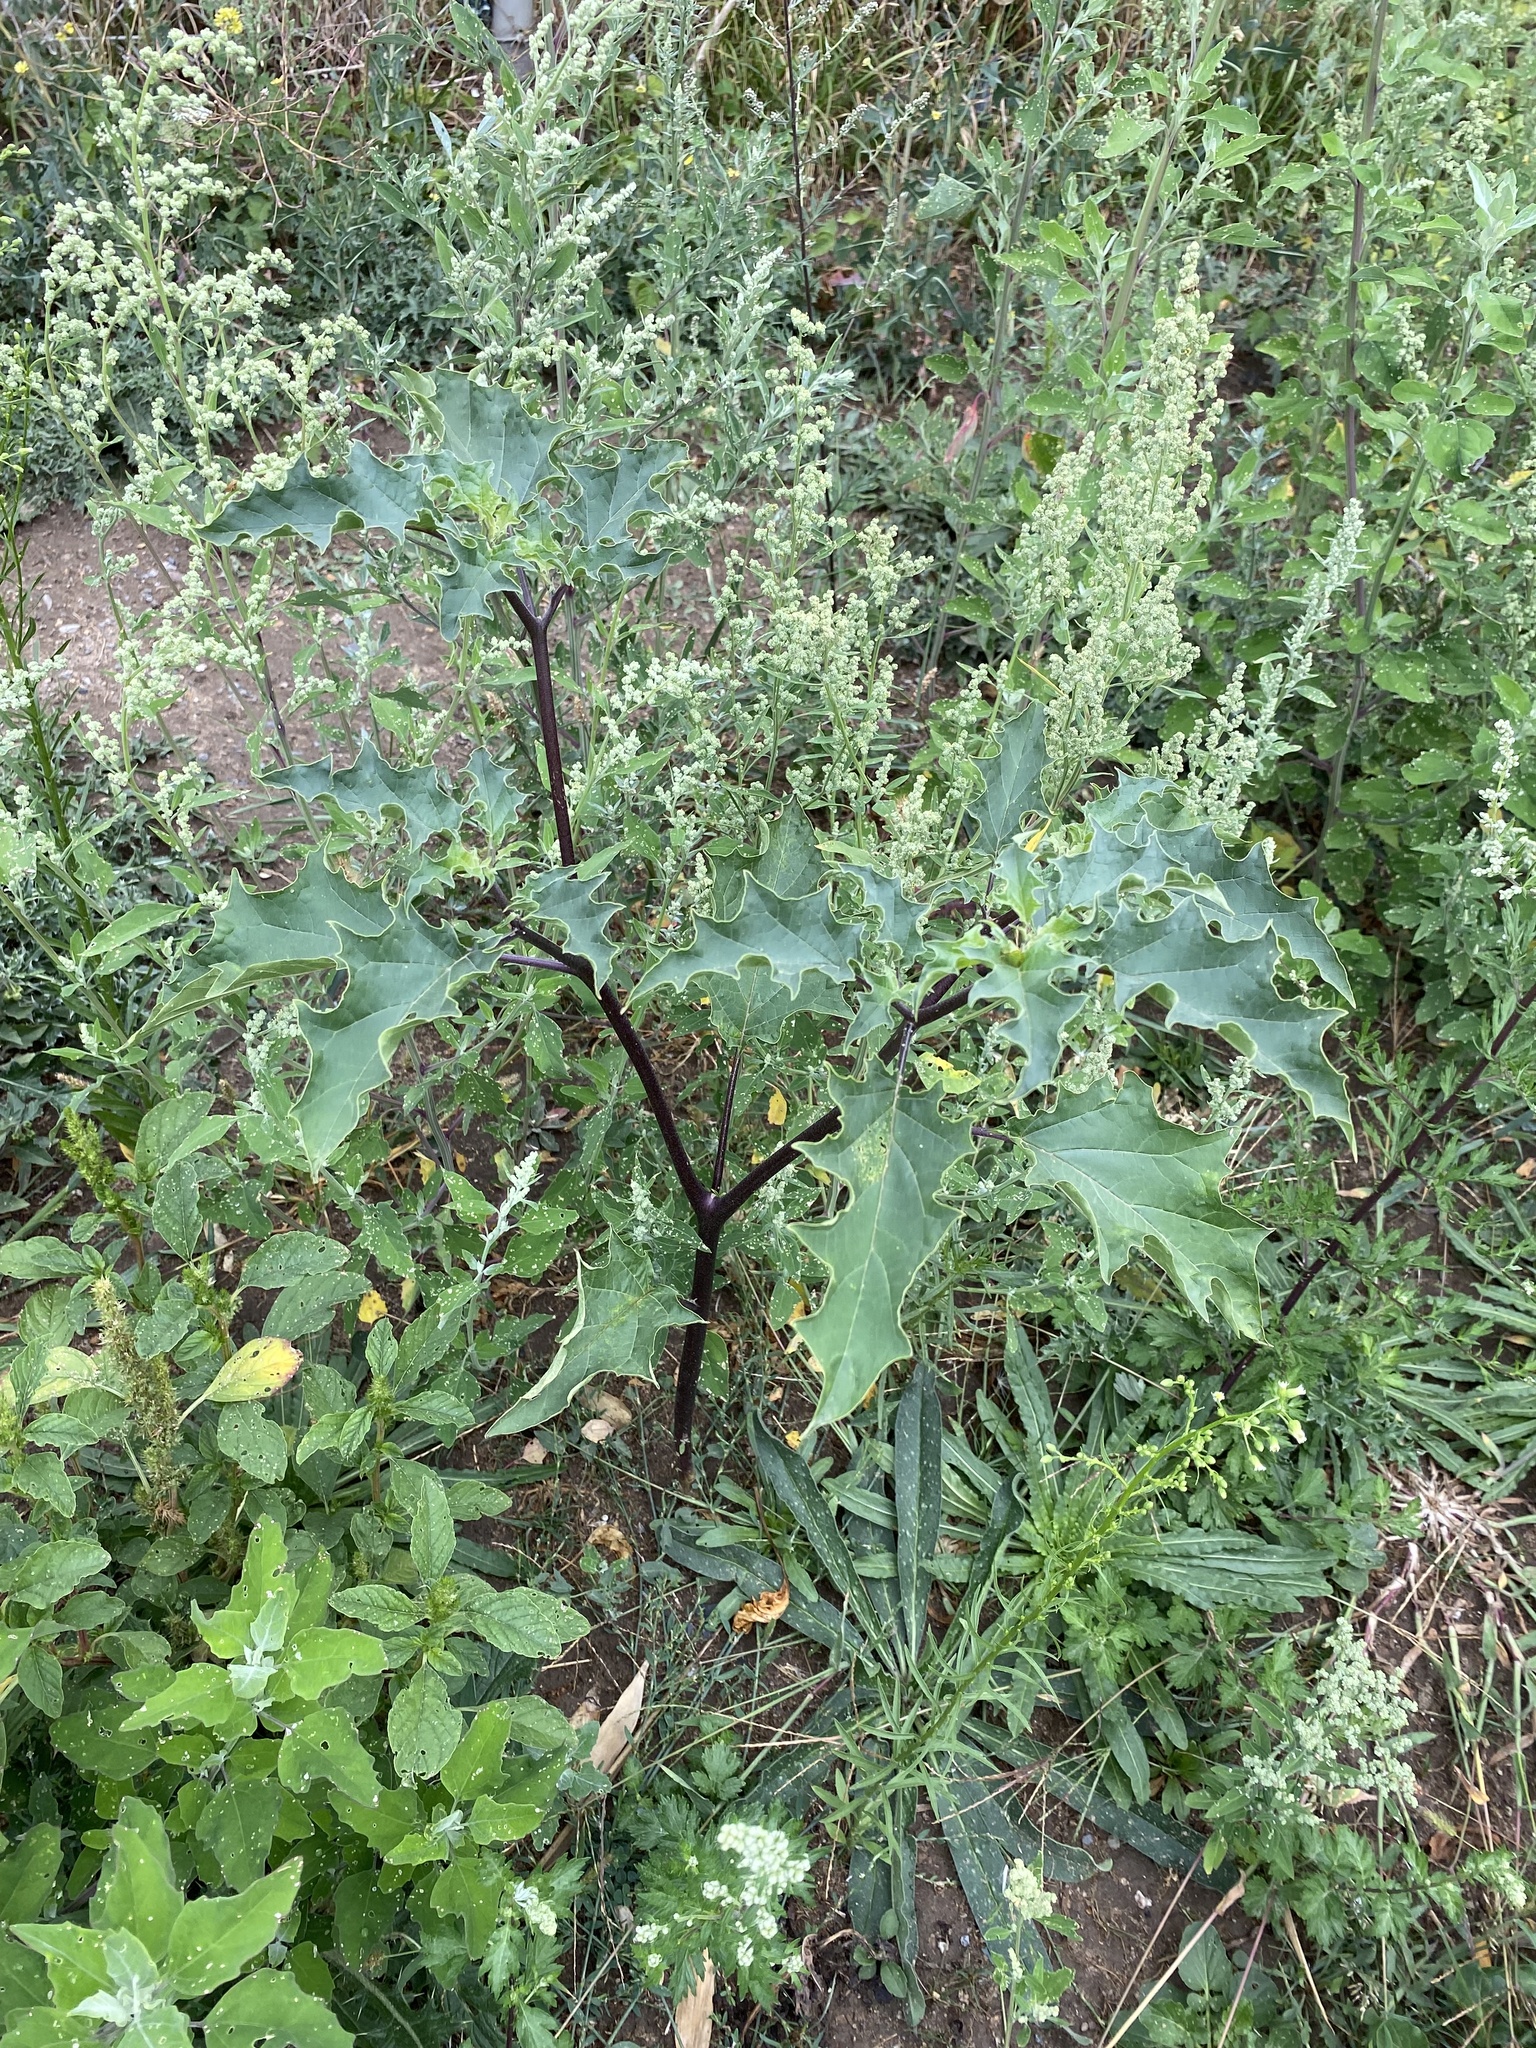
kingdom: Plantae
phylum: Tracheophyta
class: Magnoliopsida
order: Solanales
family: Solanaceae
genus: Datura
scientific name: Datura stramonium
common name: Thorn-apple
